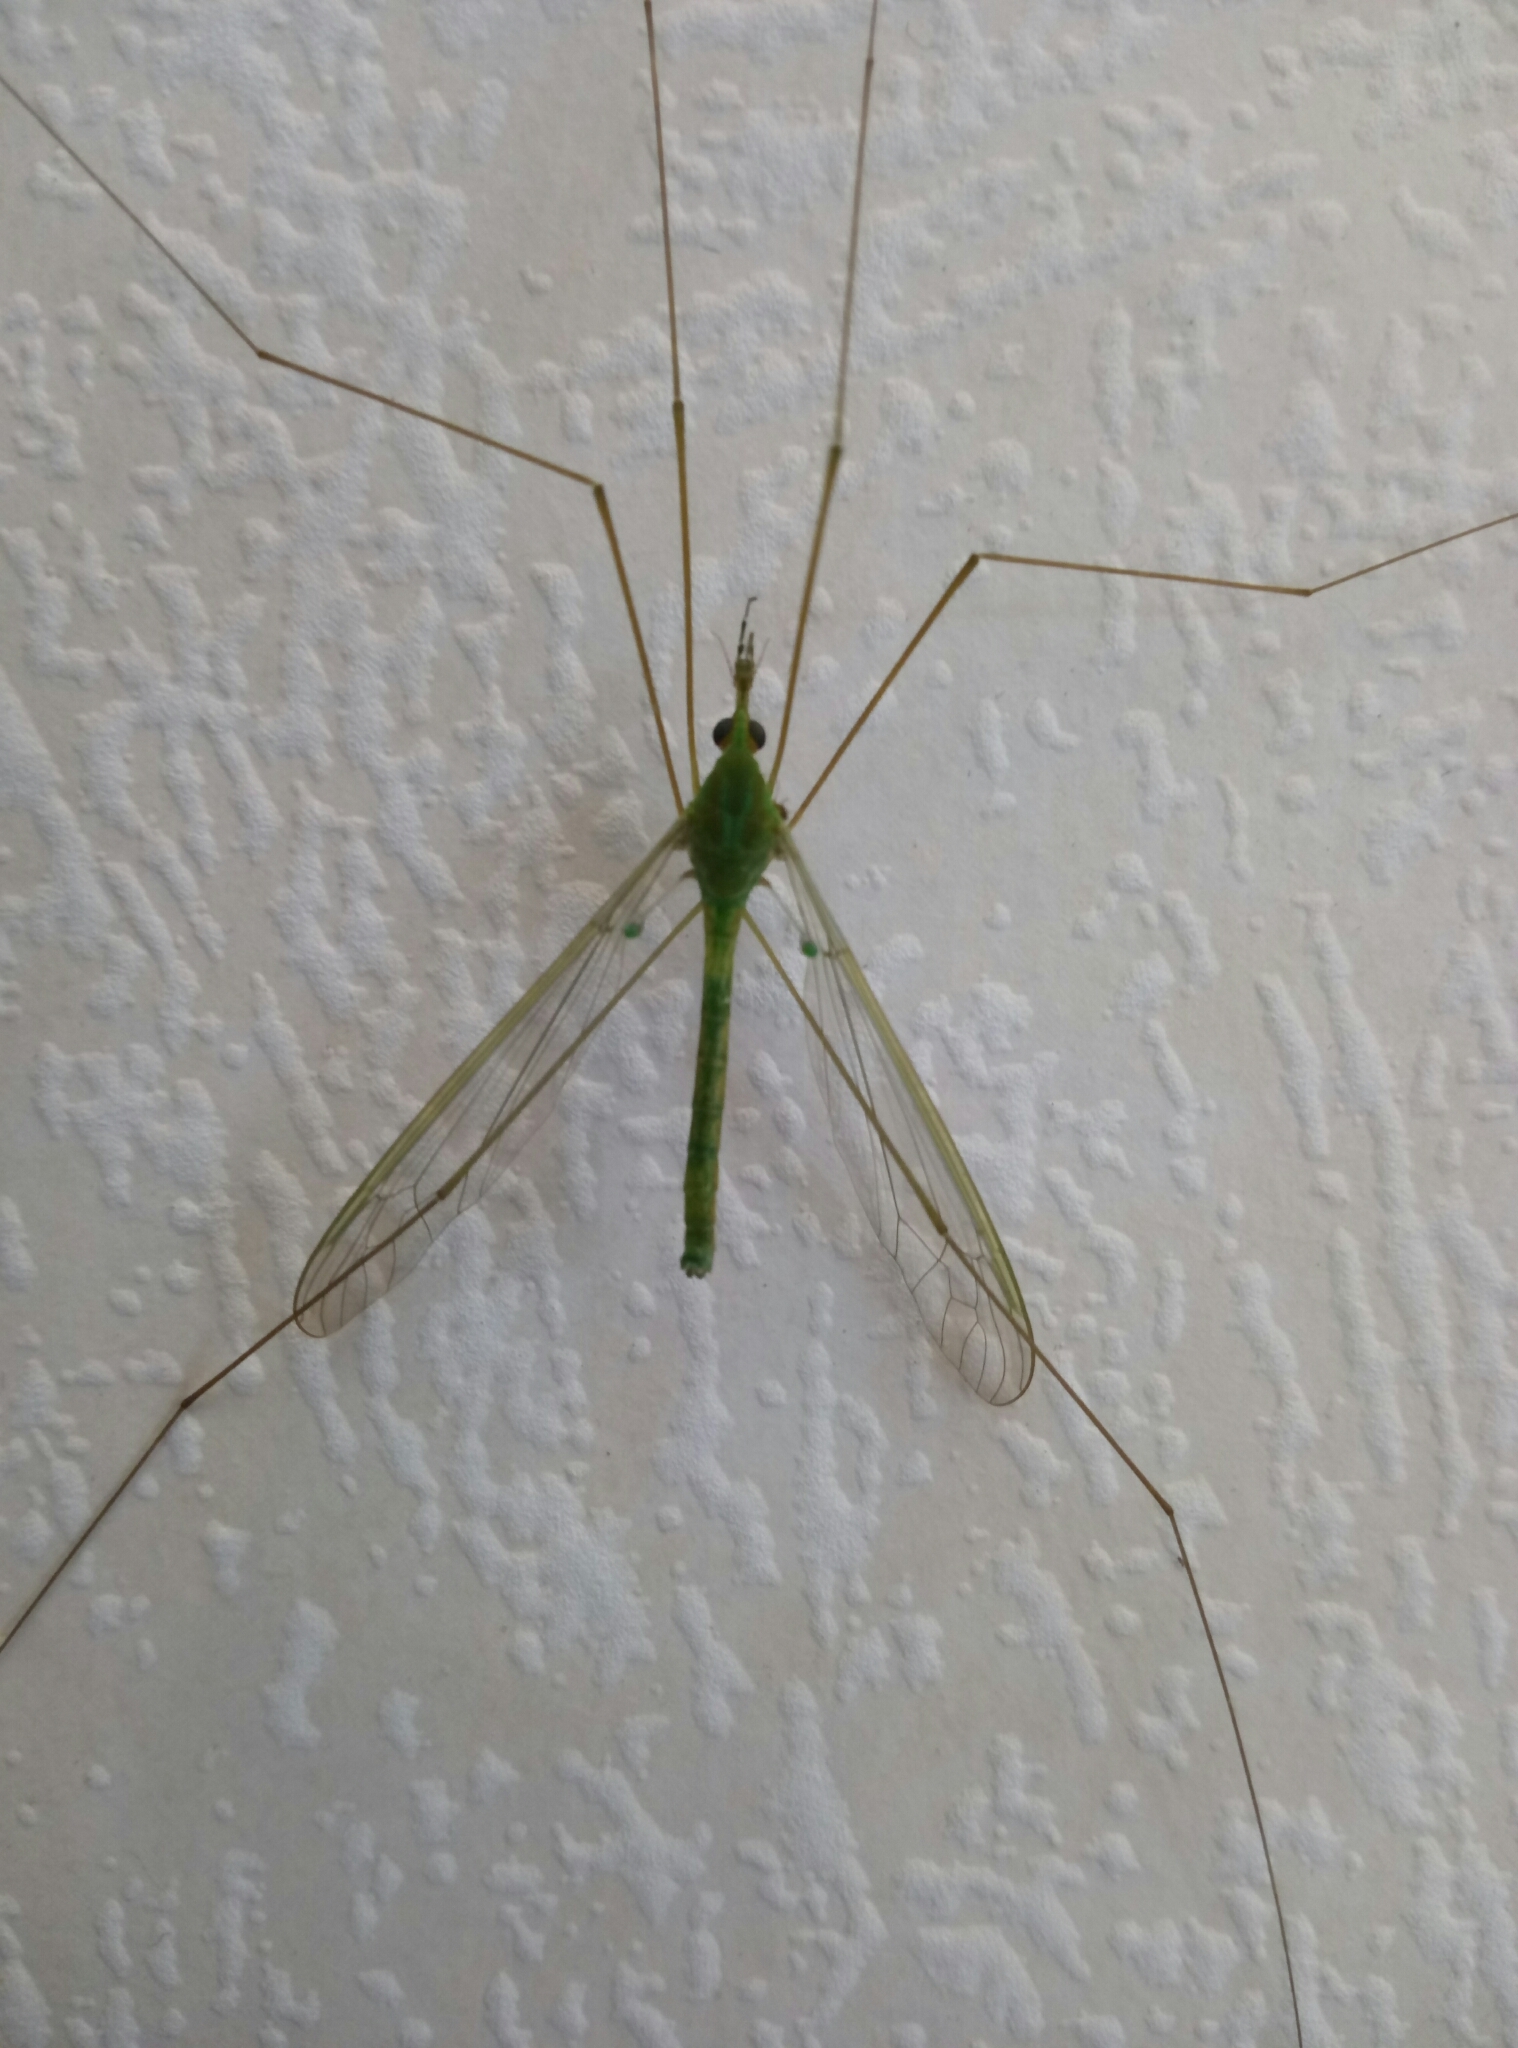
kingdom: Animalia
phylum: Arthropoda
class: Insecta
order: Diptera
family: Tipulidae
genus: Leptotarsus
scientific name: Leptotarsus virescens
